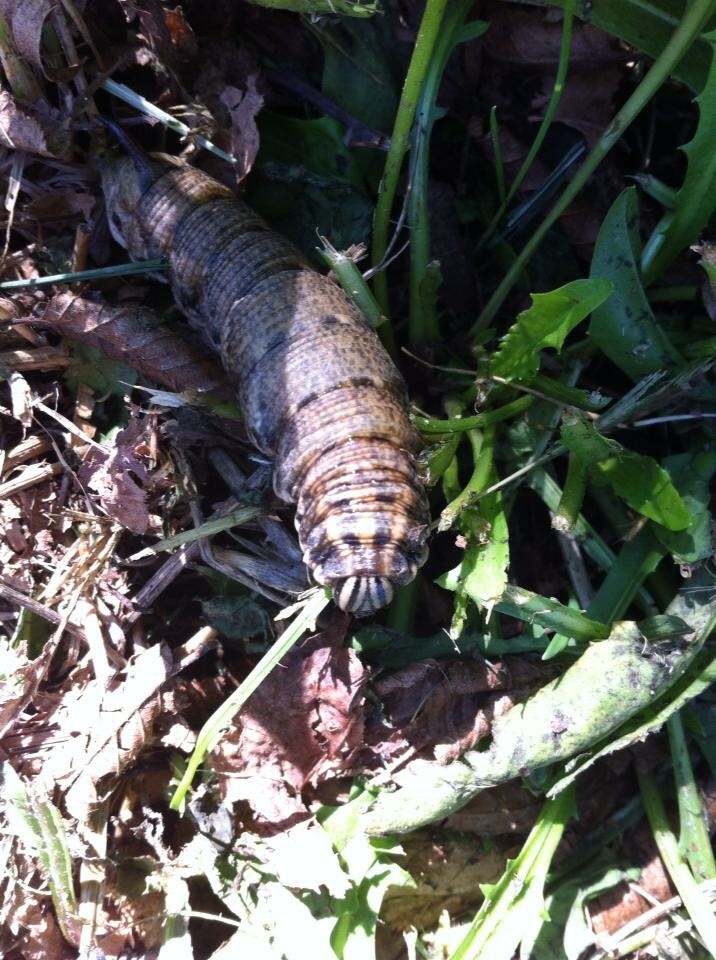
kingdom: Animalia
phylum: Arthropoda
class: Insecta
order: Lepidoptera
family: Sphingidae
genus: Agrius
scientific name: Agrius convolvuli
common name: Convolvulus hawkmoth
